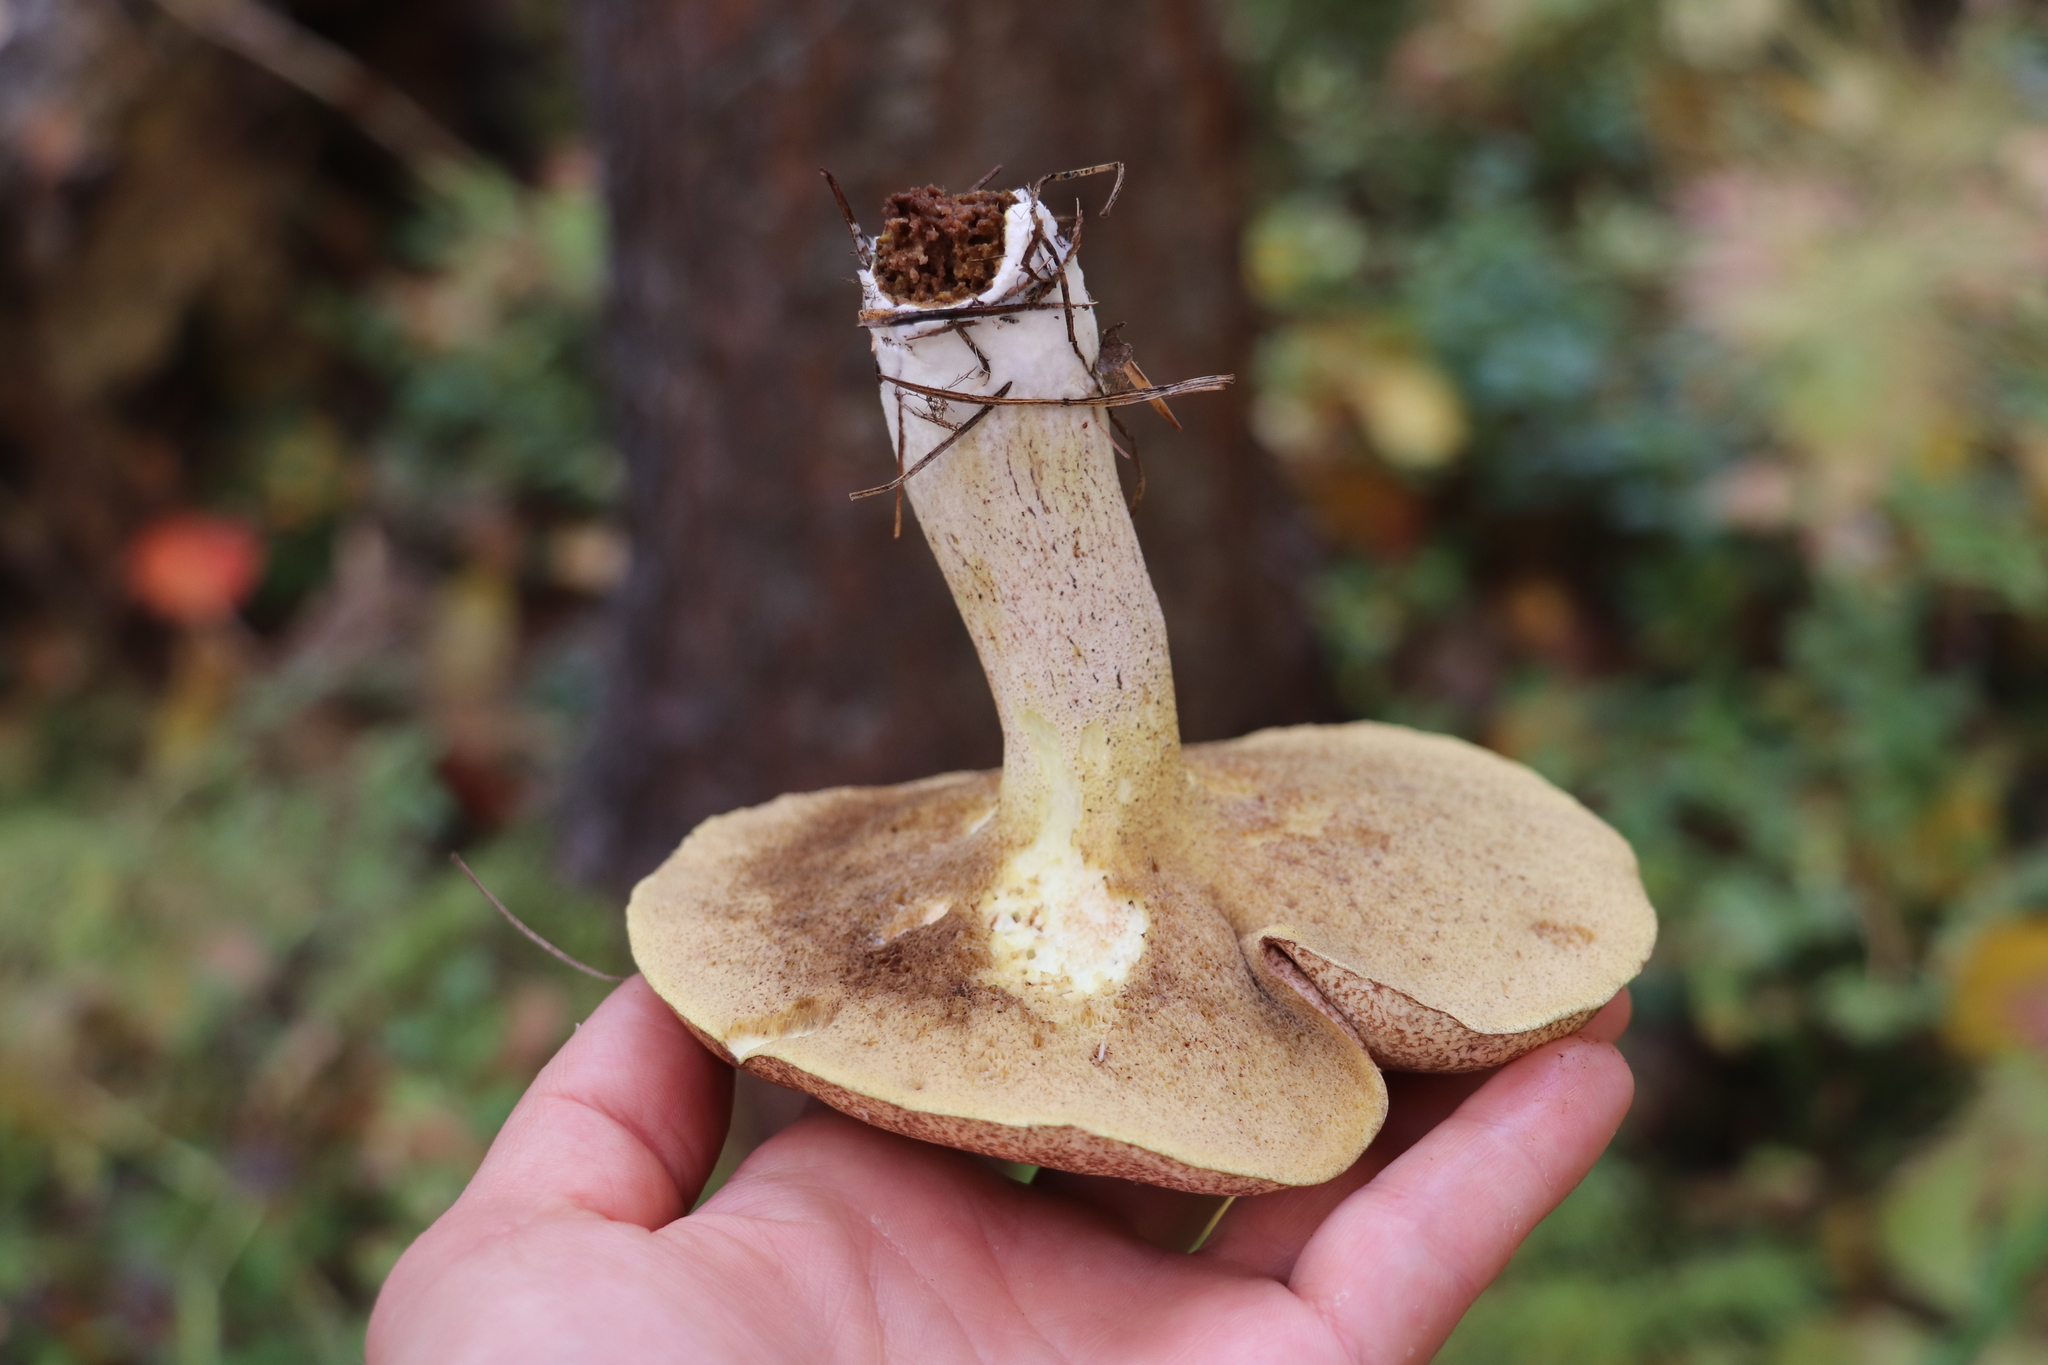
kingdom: Fungi
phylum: Basidiomycota
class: Agaricomycetes
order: Boletales
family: Suillaceae
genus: Suillus
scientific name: Suillus placidus
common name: Slippery white bolete
